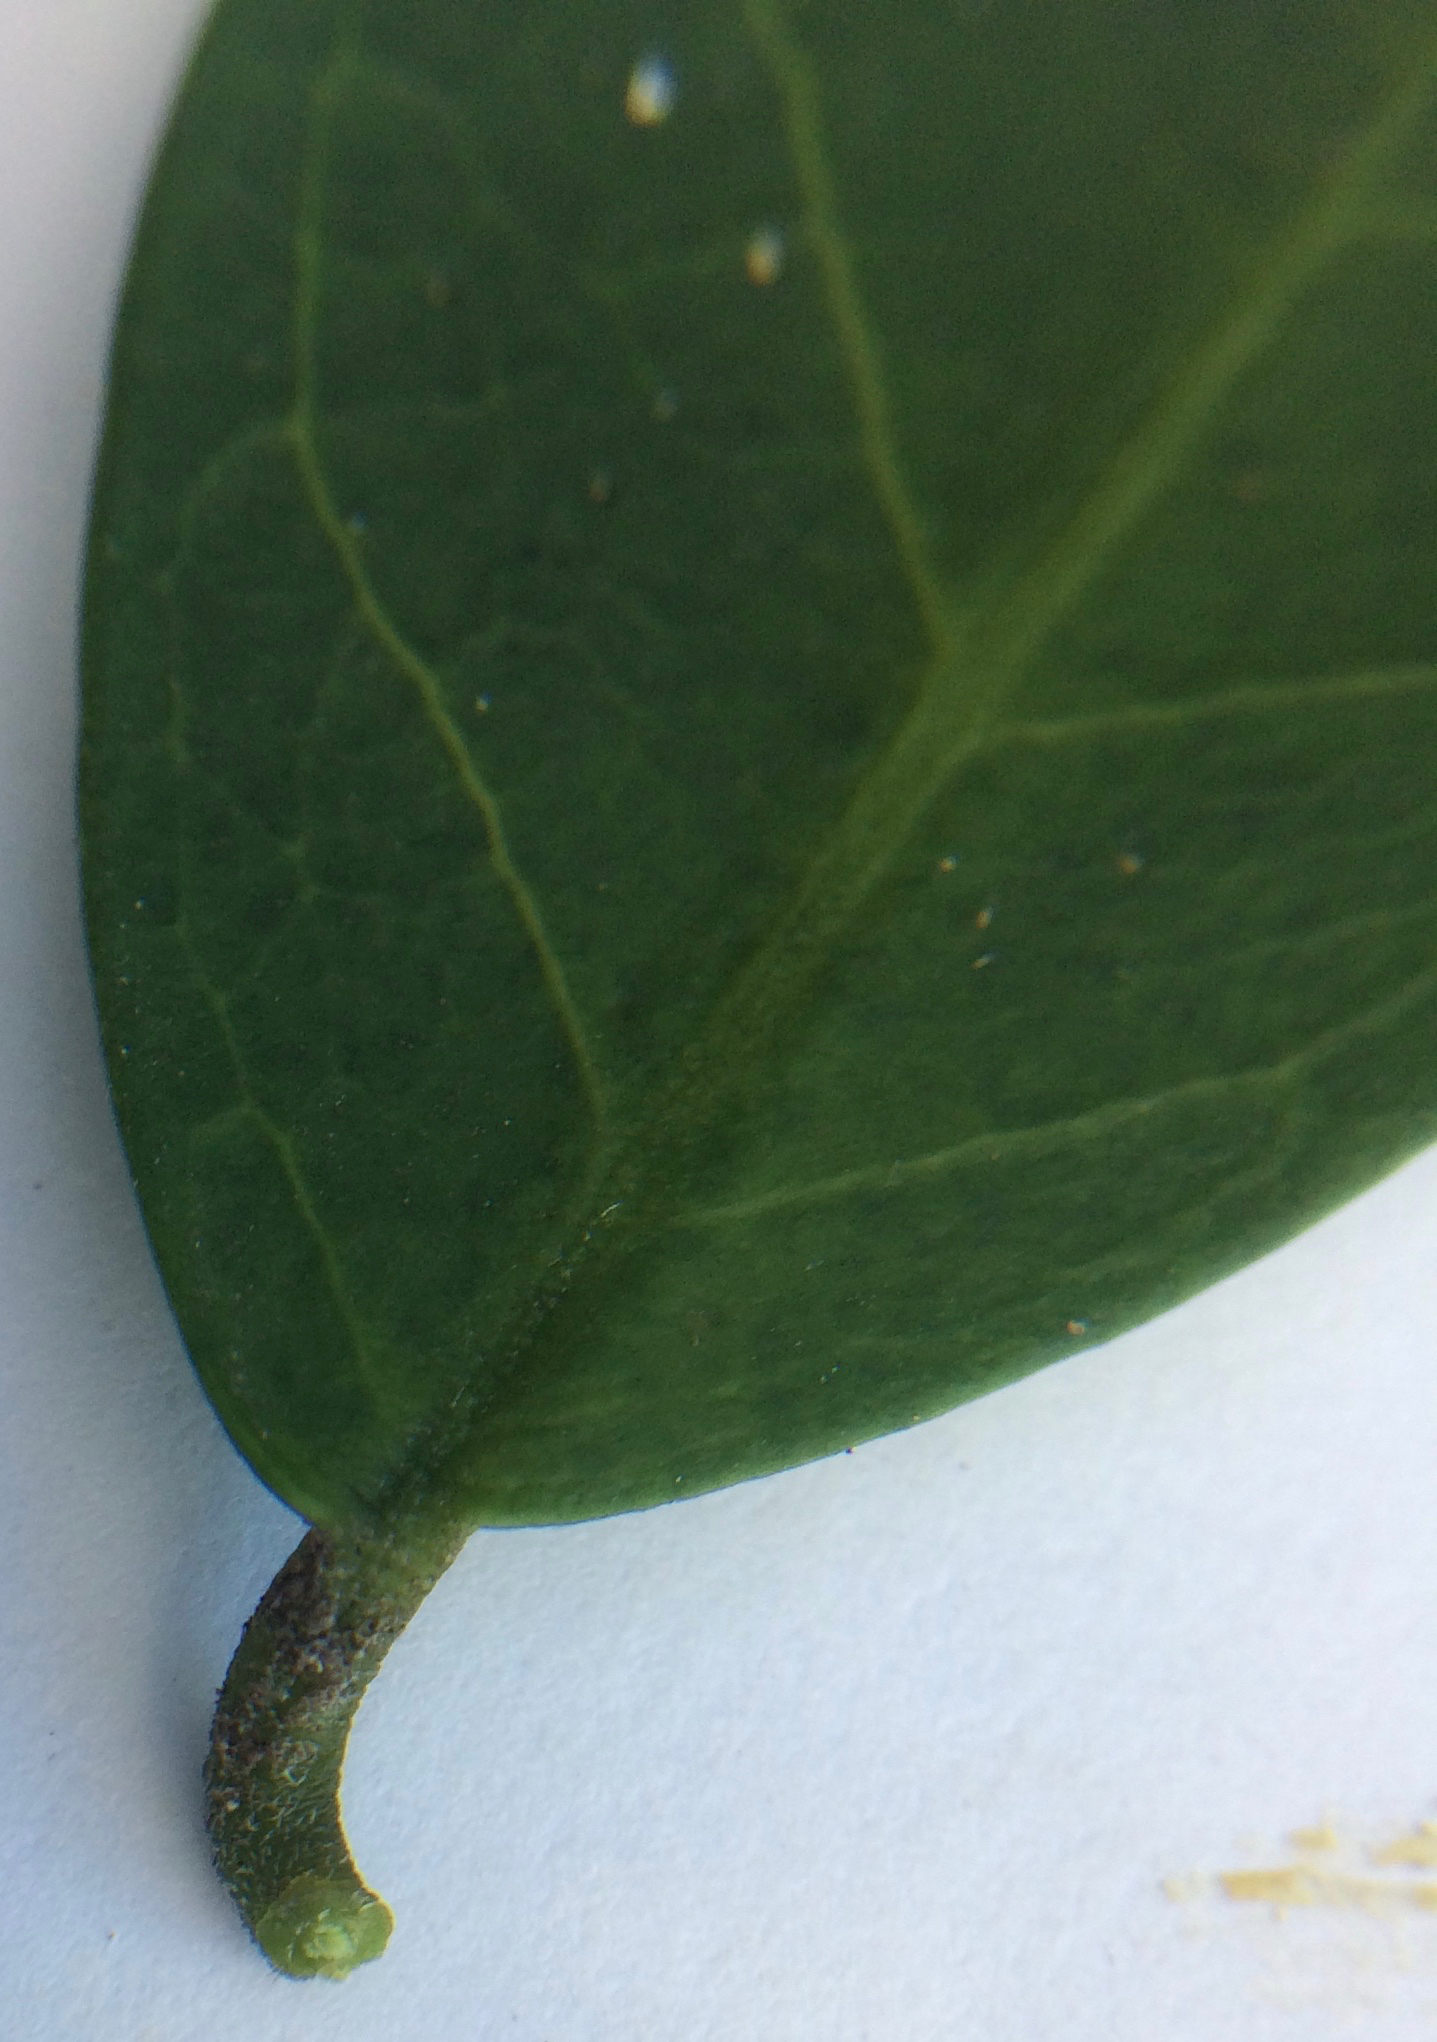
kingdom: Plantae
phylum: Tracheophyta
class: Magnoliopsida
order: Brassicales
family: Capparaceae
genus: Capparis
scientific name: Capparis sepiaria
